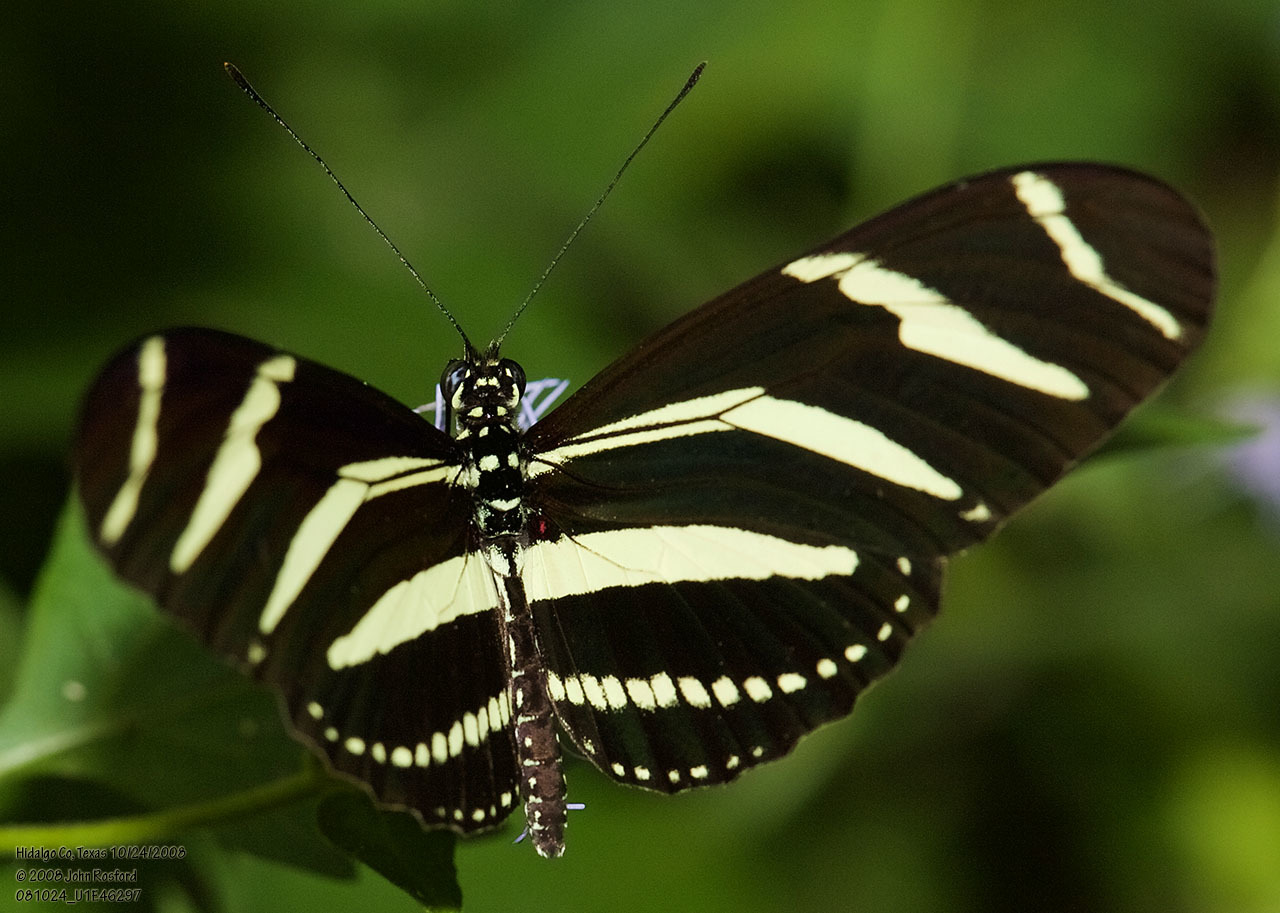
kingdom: Animalia
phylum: Arthropoda
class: Insecta
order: Lepidoptera
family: Nymphalidae
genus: Heliconius
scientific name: Heliconius charithonia
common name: Zebra long wing
